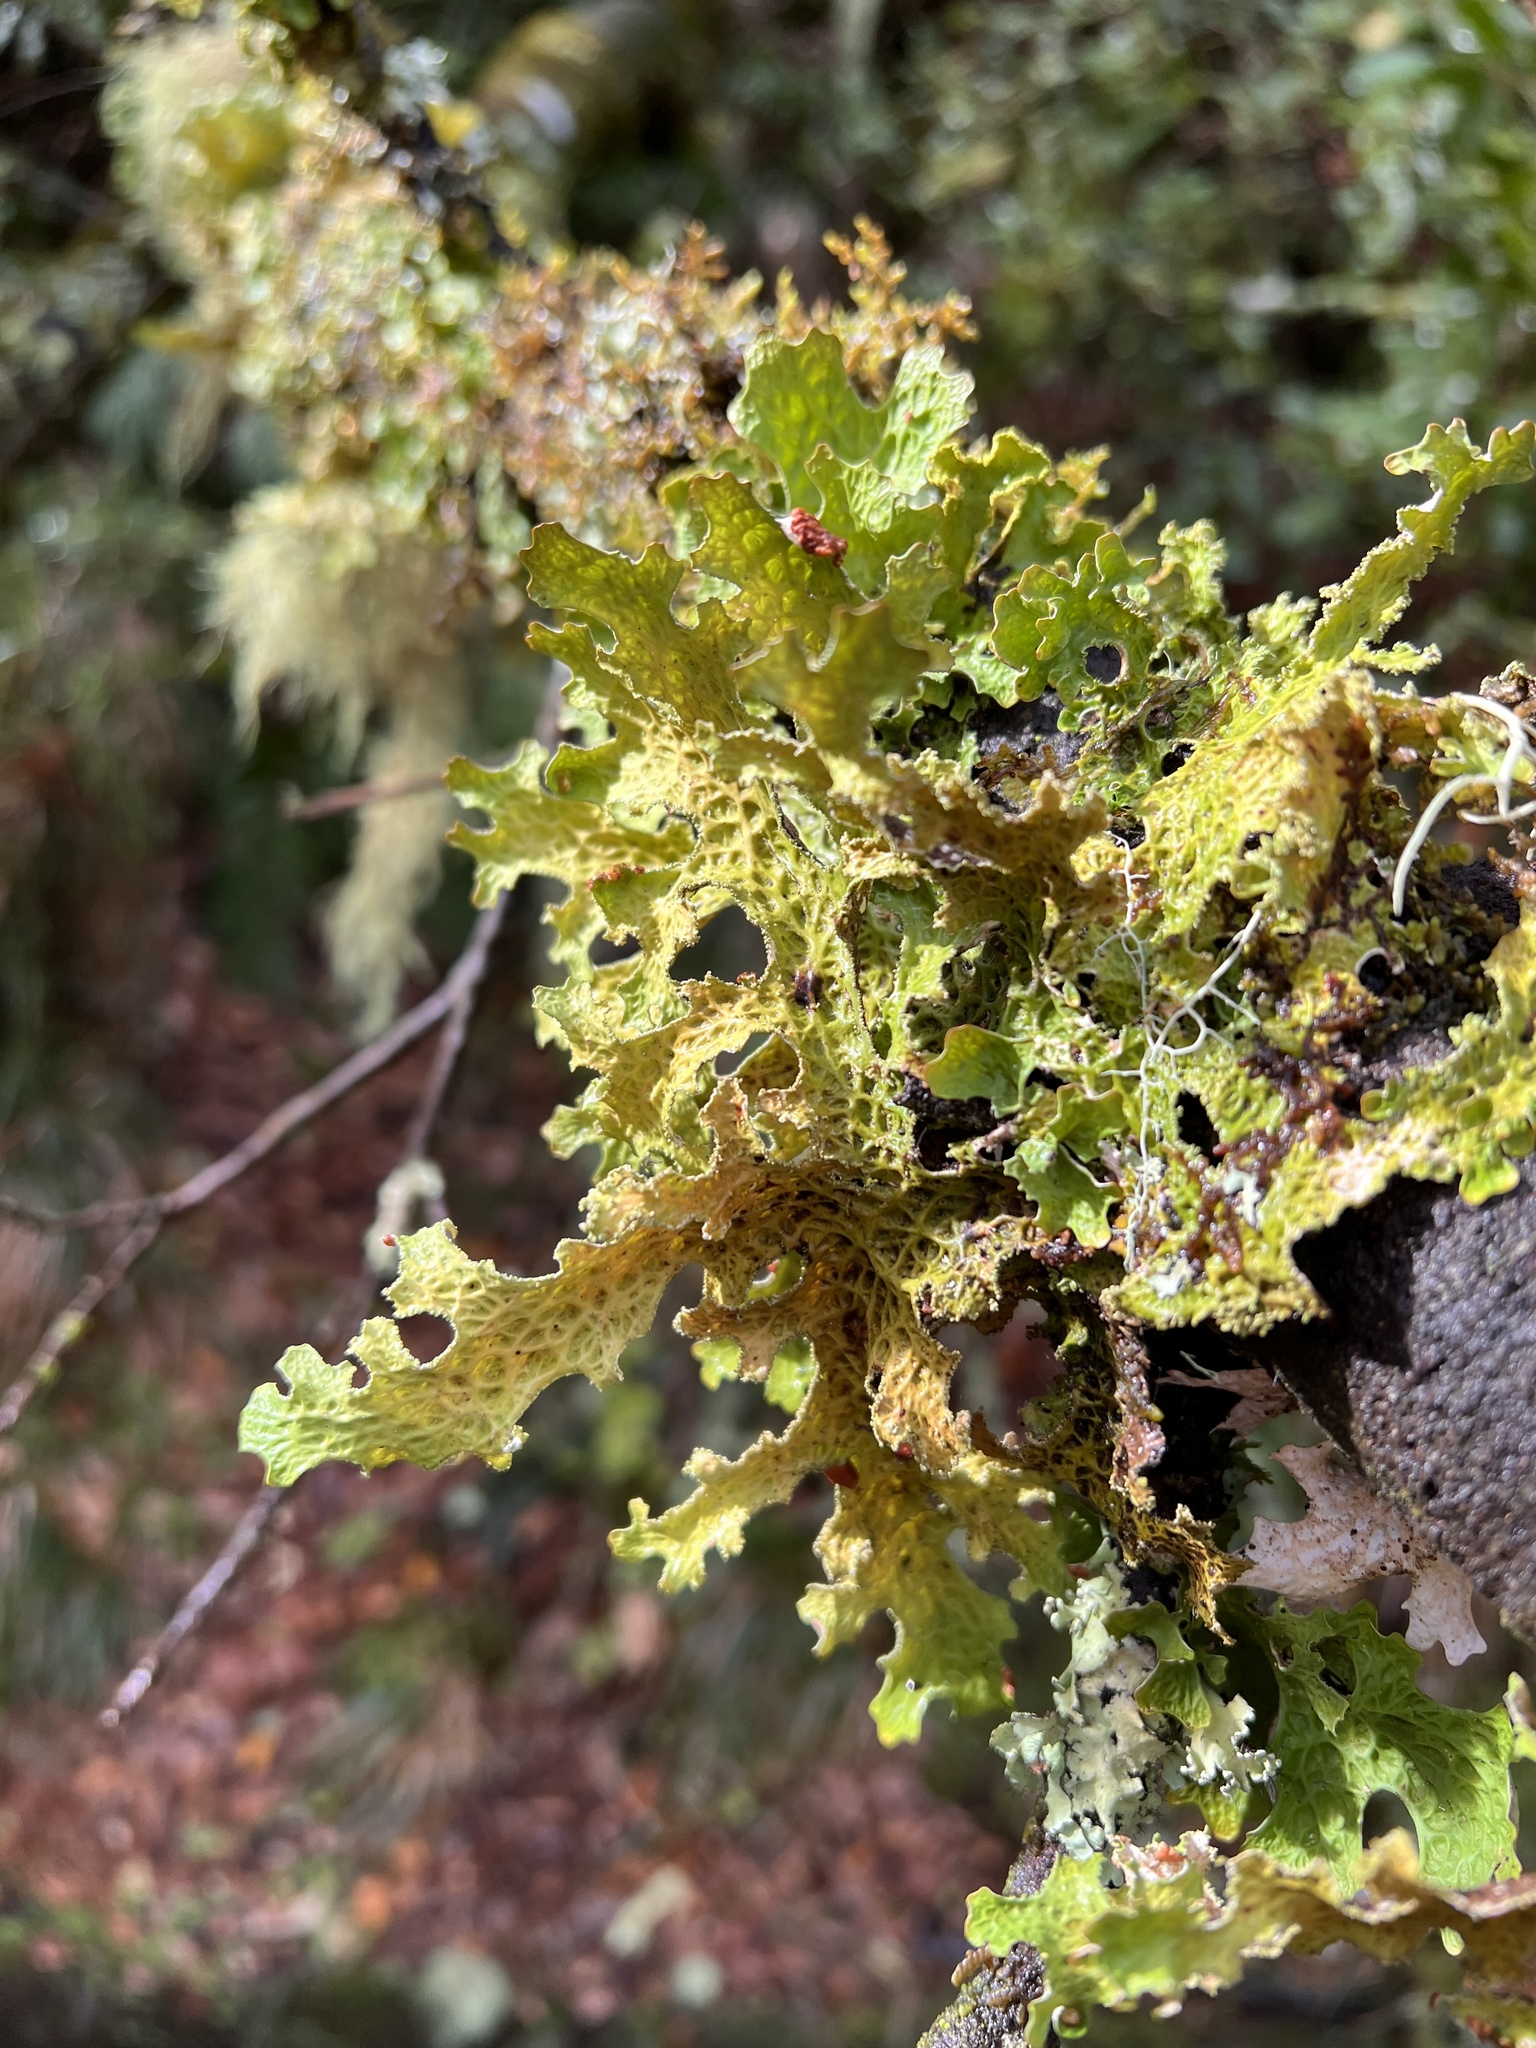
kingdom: Fungi
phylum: Ascomycota
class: Lecanoromycetes
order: Peltigerales
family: Lobariaceae
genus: Lobaria
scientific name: Lobaria pulmonaria
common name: Lungwort
